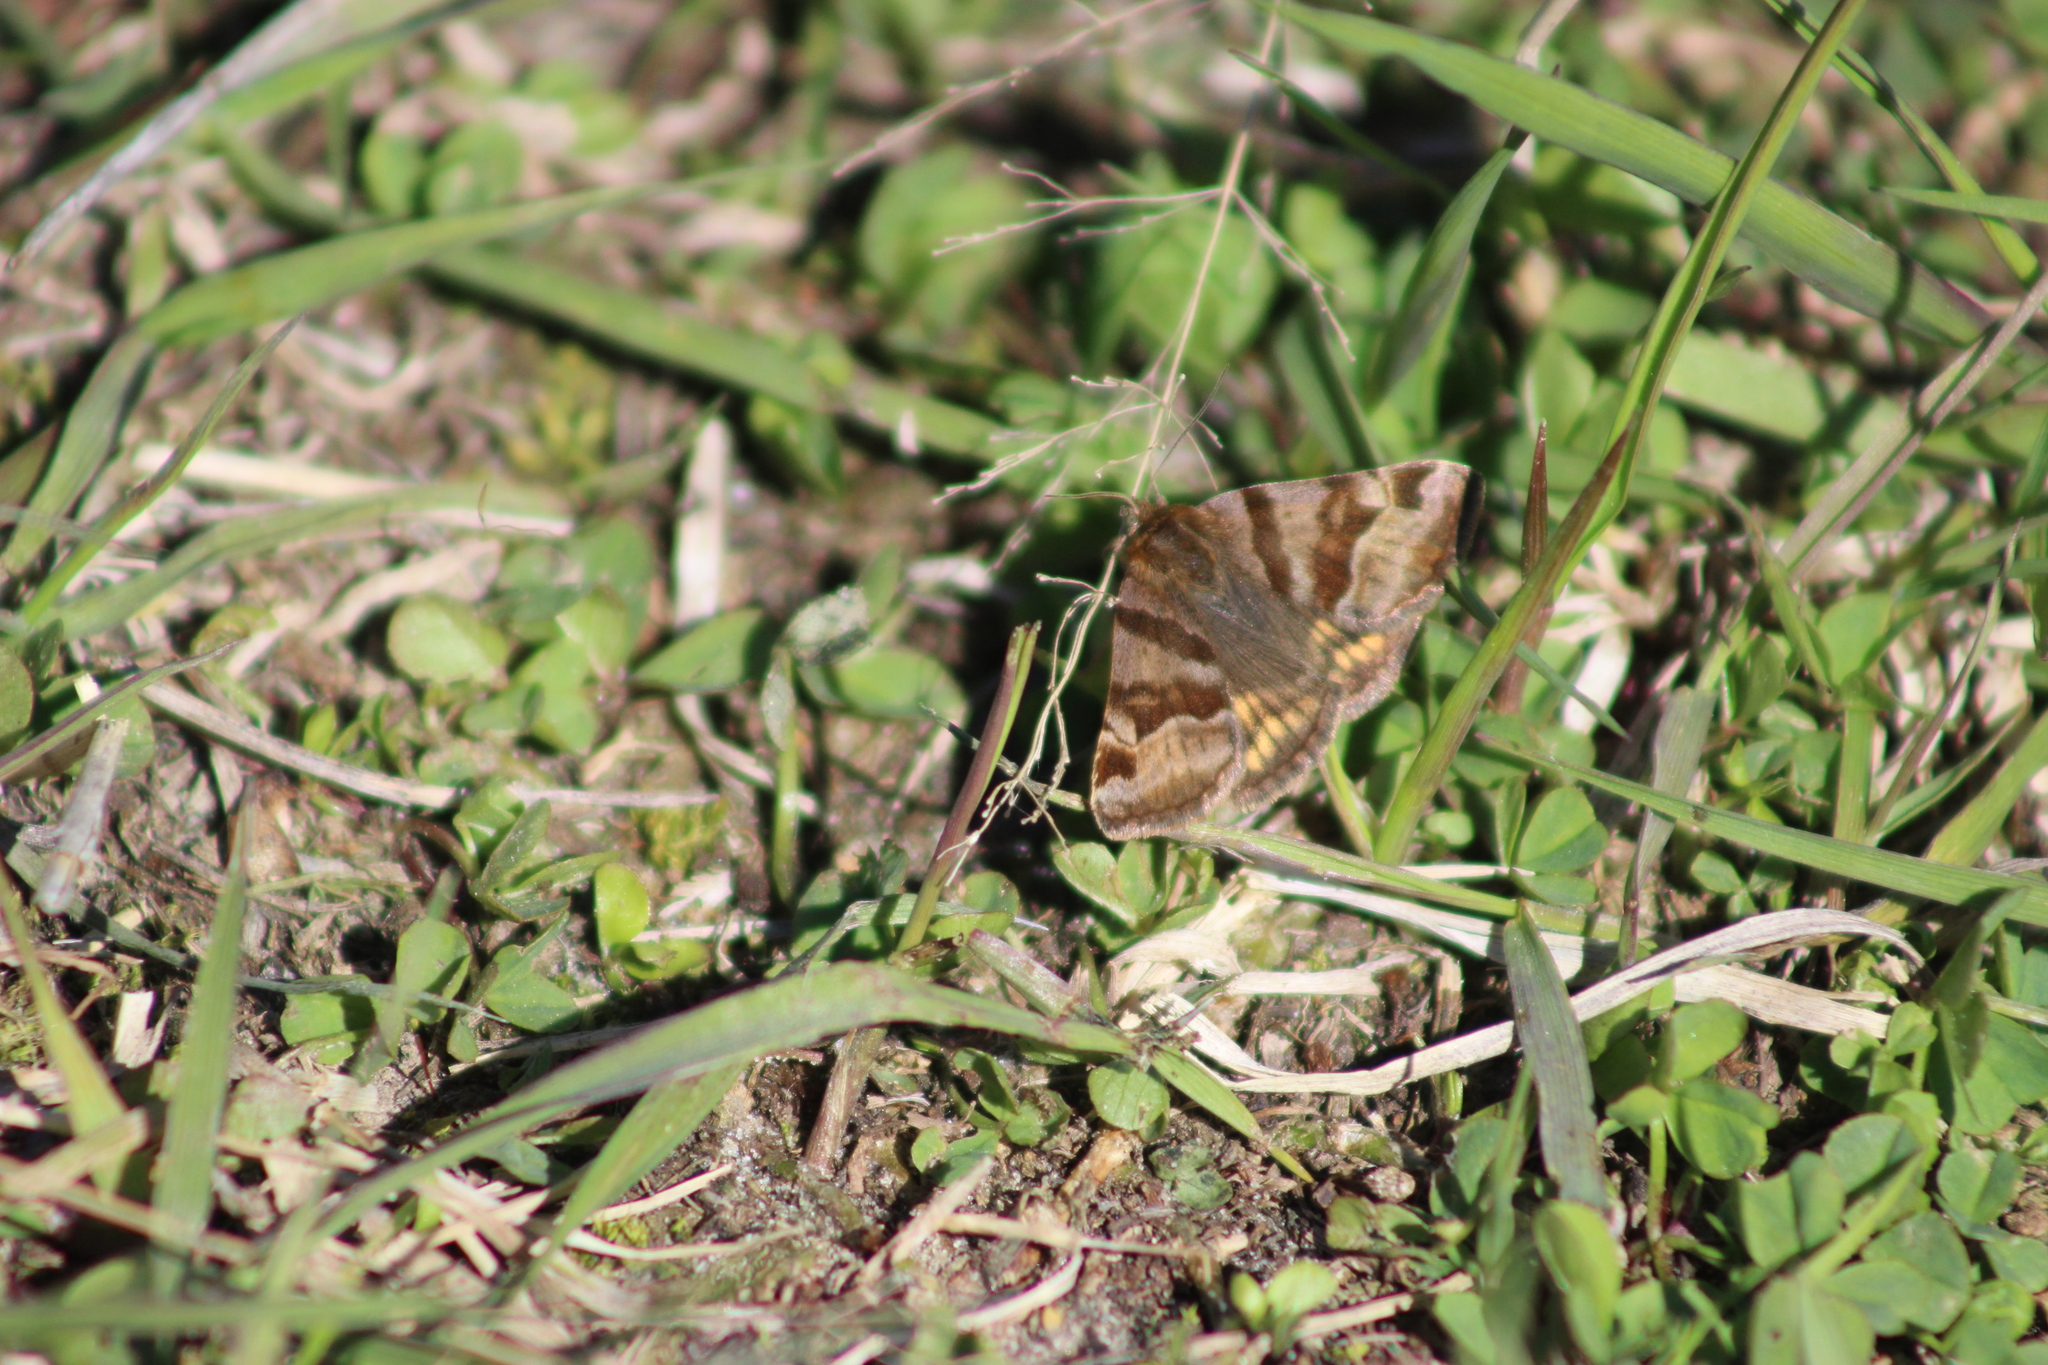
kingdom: Animalia
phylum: Arthropoda
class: Insecta
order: Lepidoptera
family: Erebidae
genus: Euclidia
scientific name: Euclidia glyphica
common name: Burnet companion
